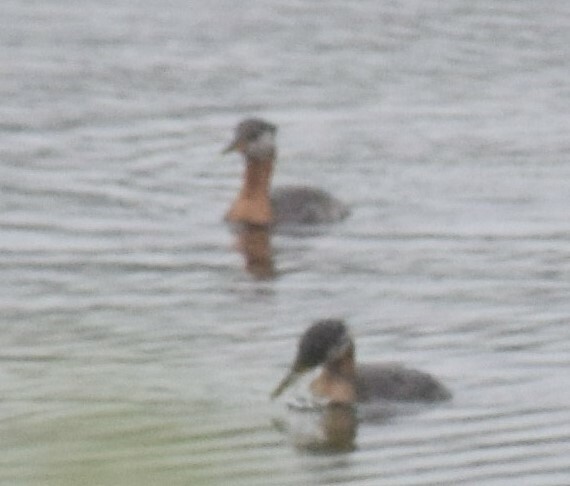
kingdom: Animalia
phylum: Chordata
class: Aves
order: Podicipediformes
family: Podicipedidae
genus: Podiceps
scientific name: Podiceps grisegena
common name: Red-necked grebe
